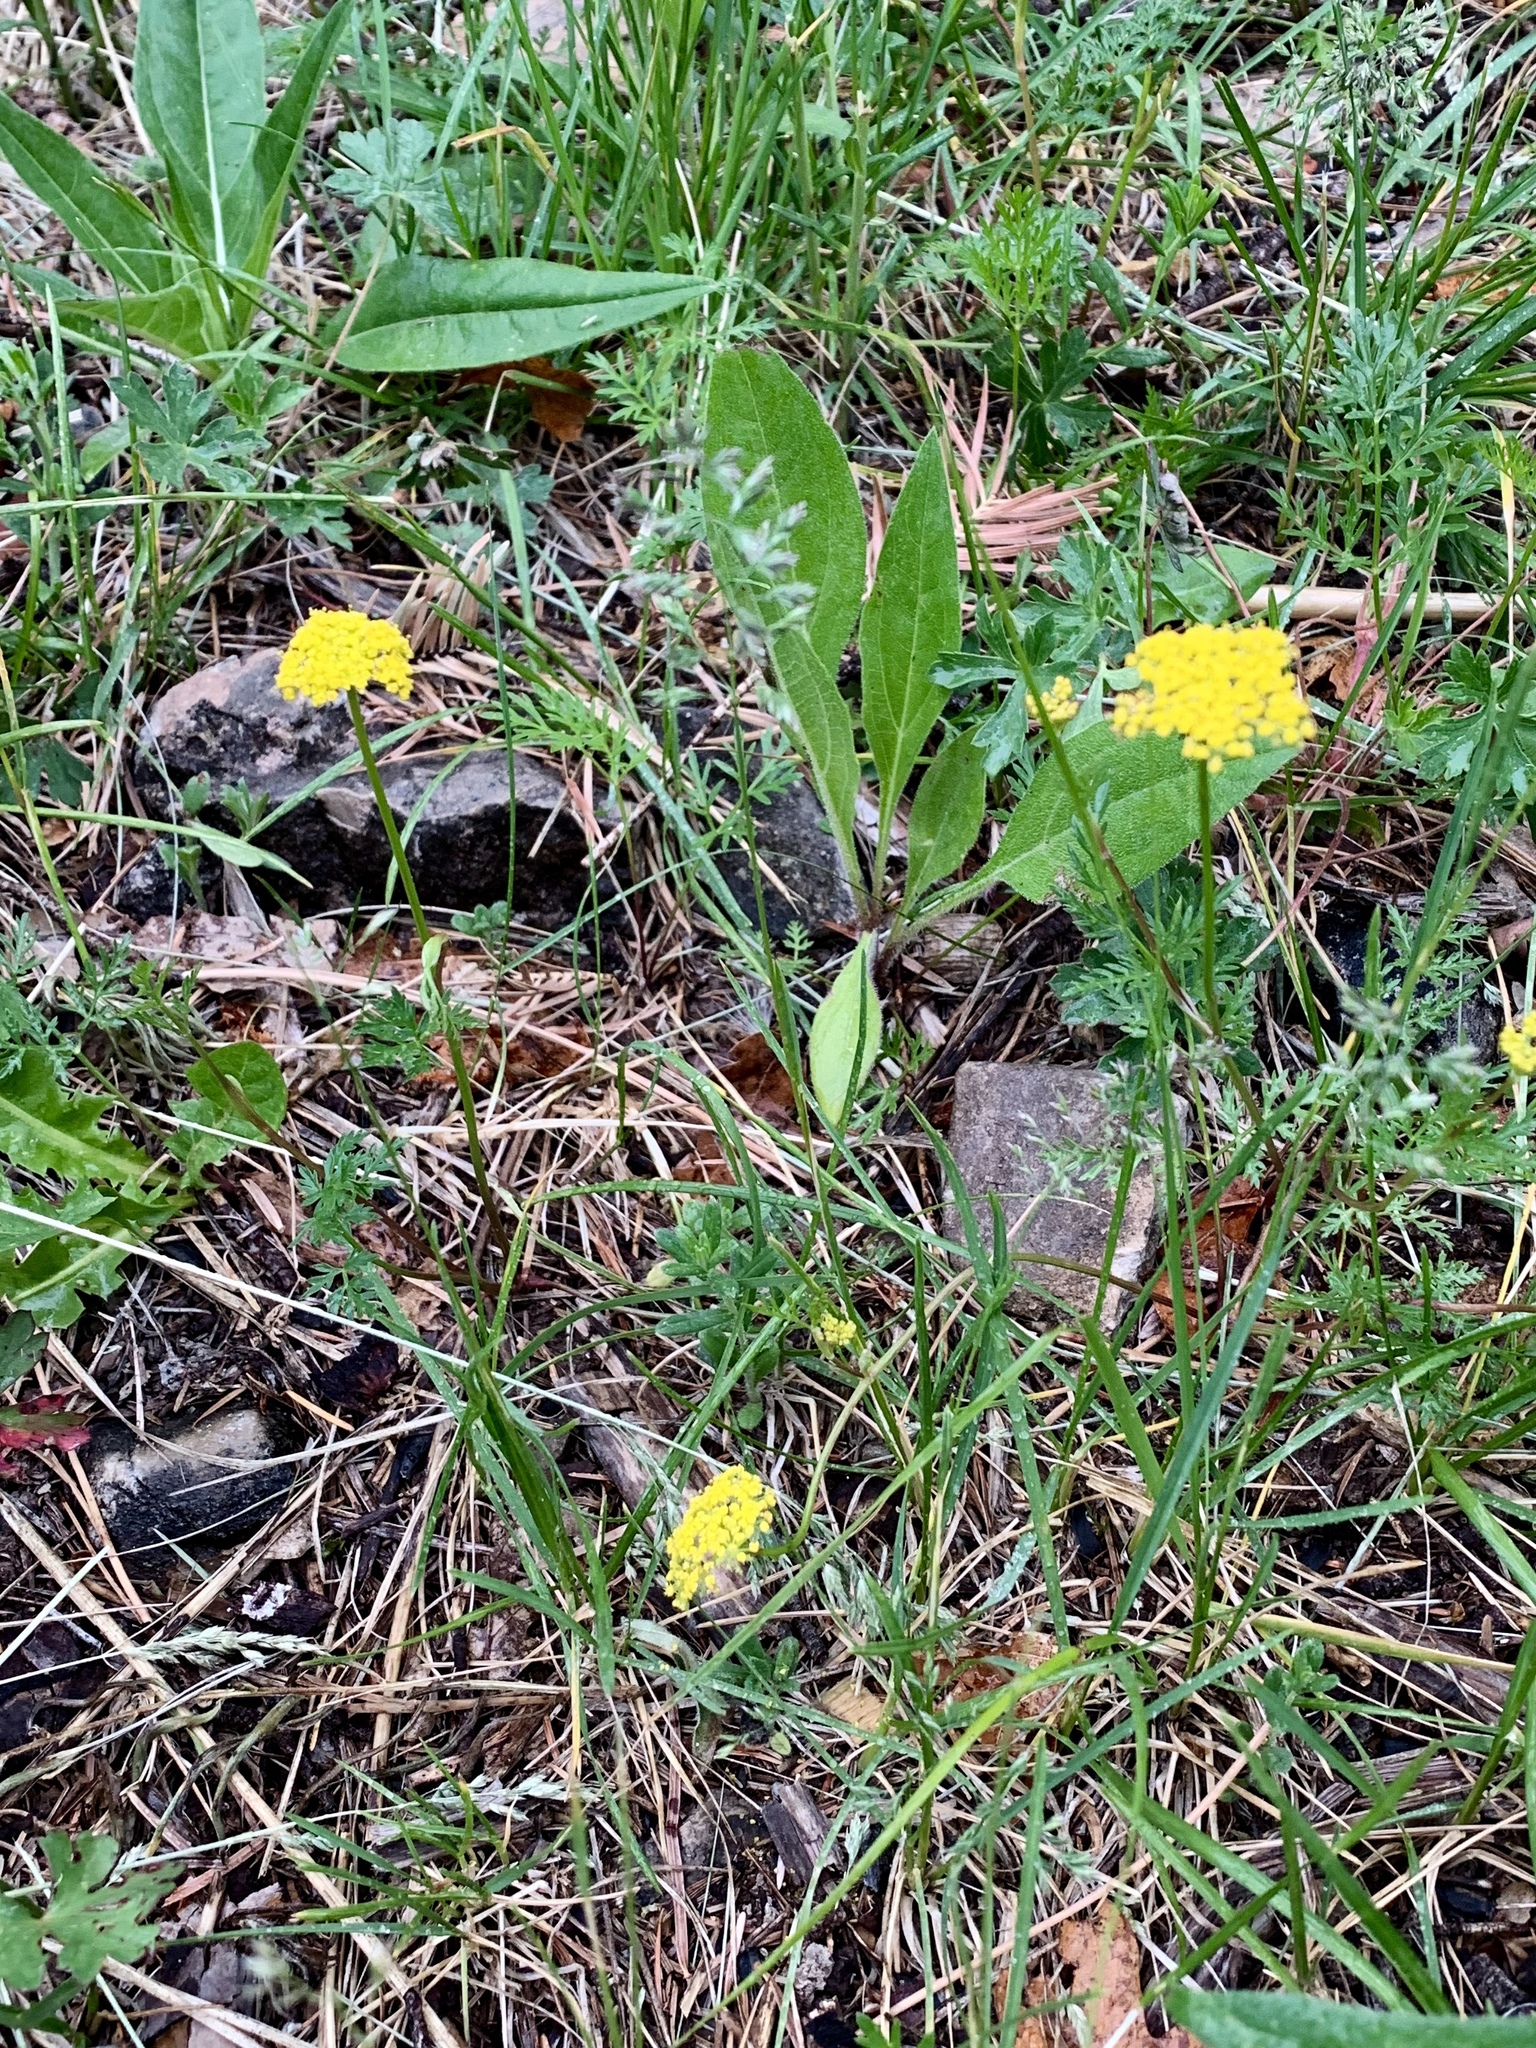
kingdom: Plantae
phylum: Tracheophyta
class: Magnoliopsida
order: Apiales
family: Apiaceae
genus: Cymopterus
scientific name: Cymopterus lemmonii
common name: Lemmon's spring-parsley
